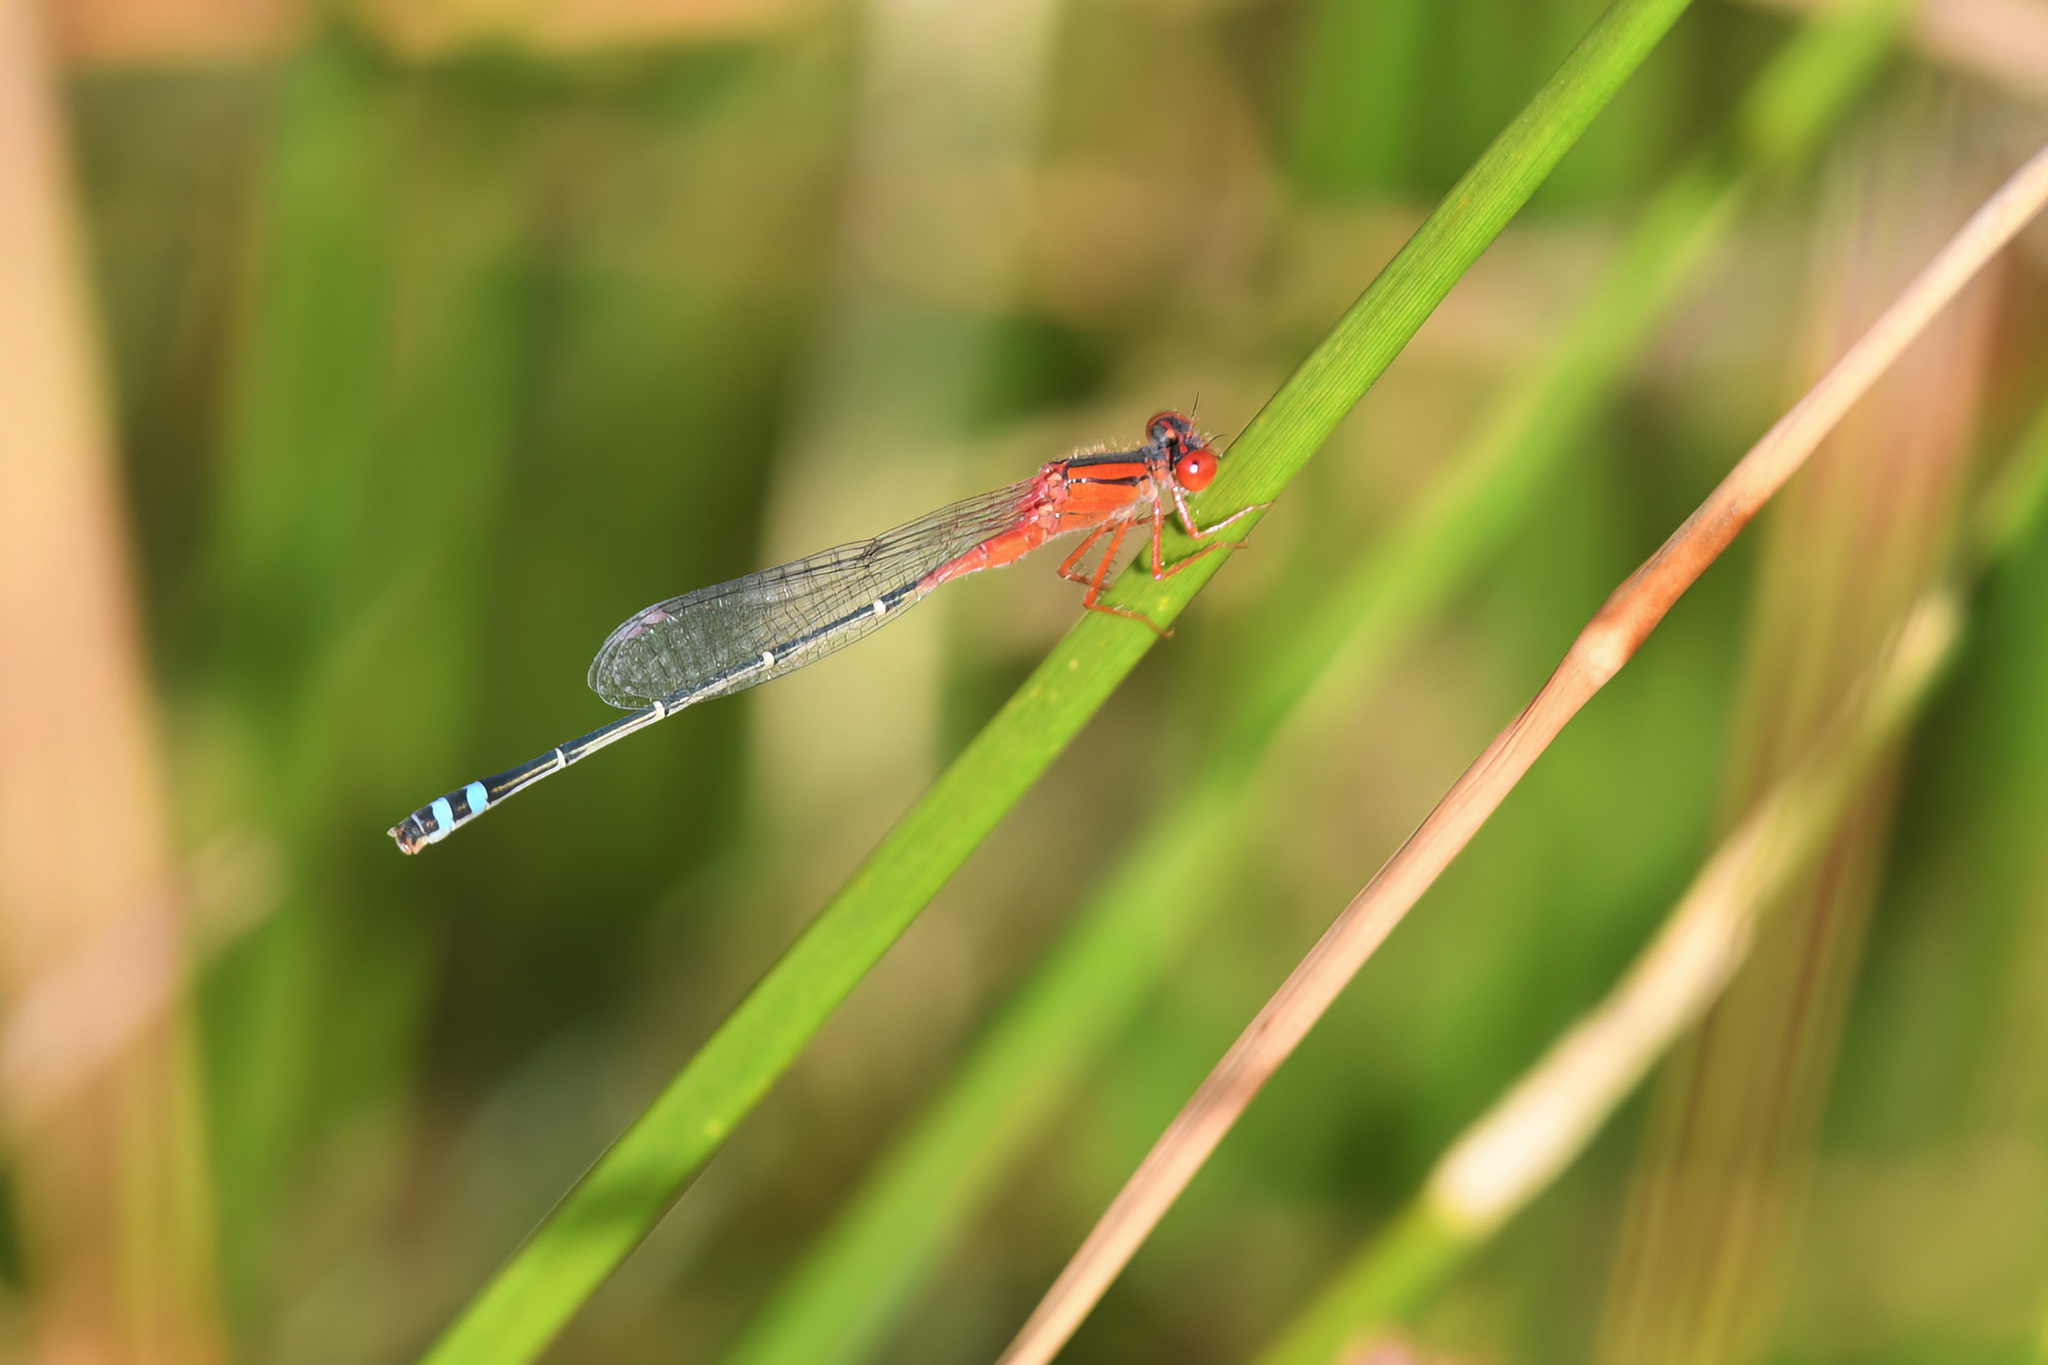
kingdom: Animalia
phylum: Arthropoda
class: Insecta
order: Odonata
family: Coenagrionidae
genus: Xanthagrion
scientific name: Xanthagrion erythroneurum
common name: Red and blue damsel
